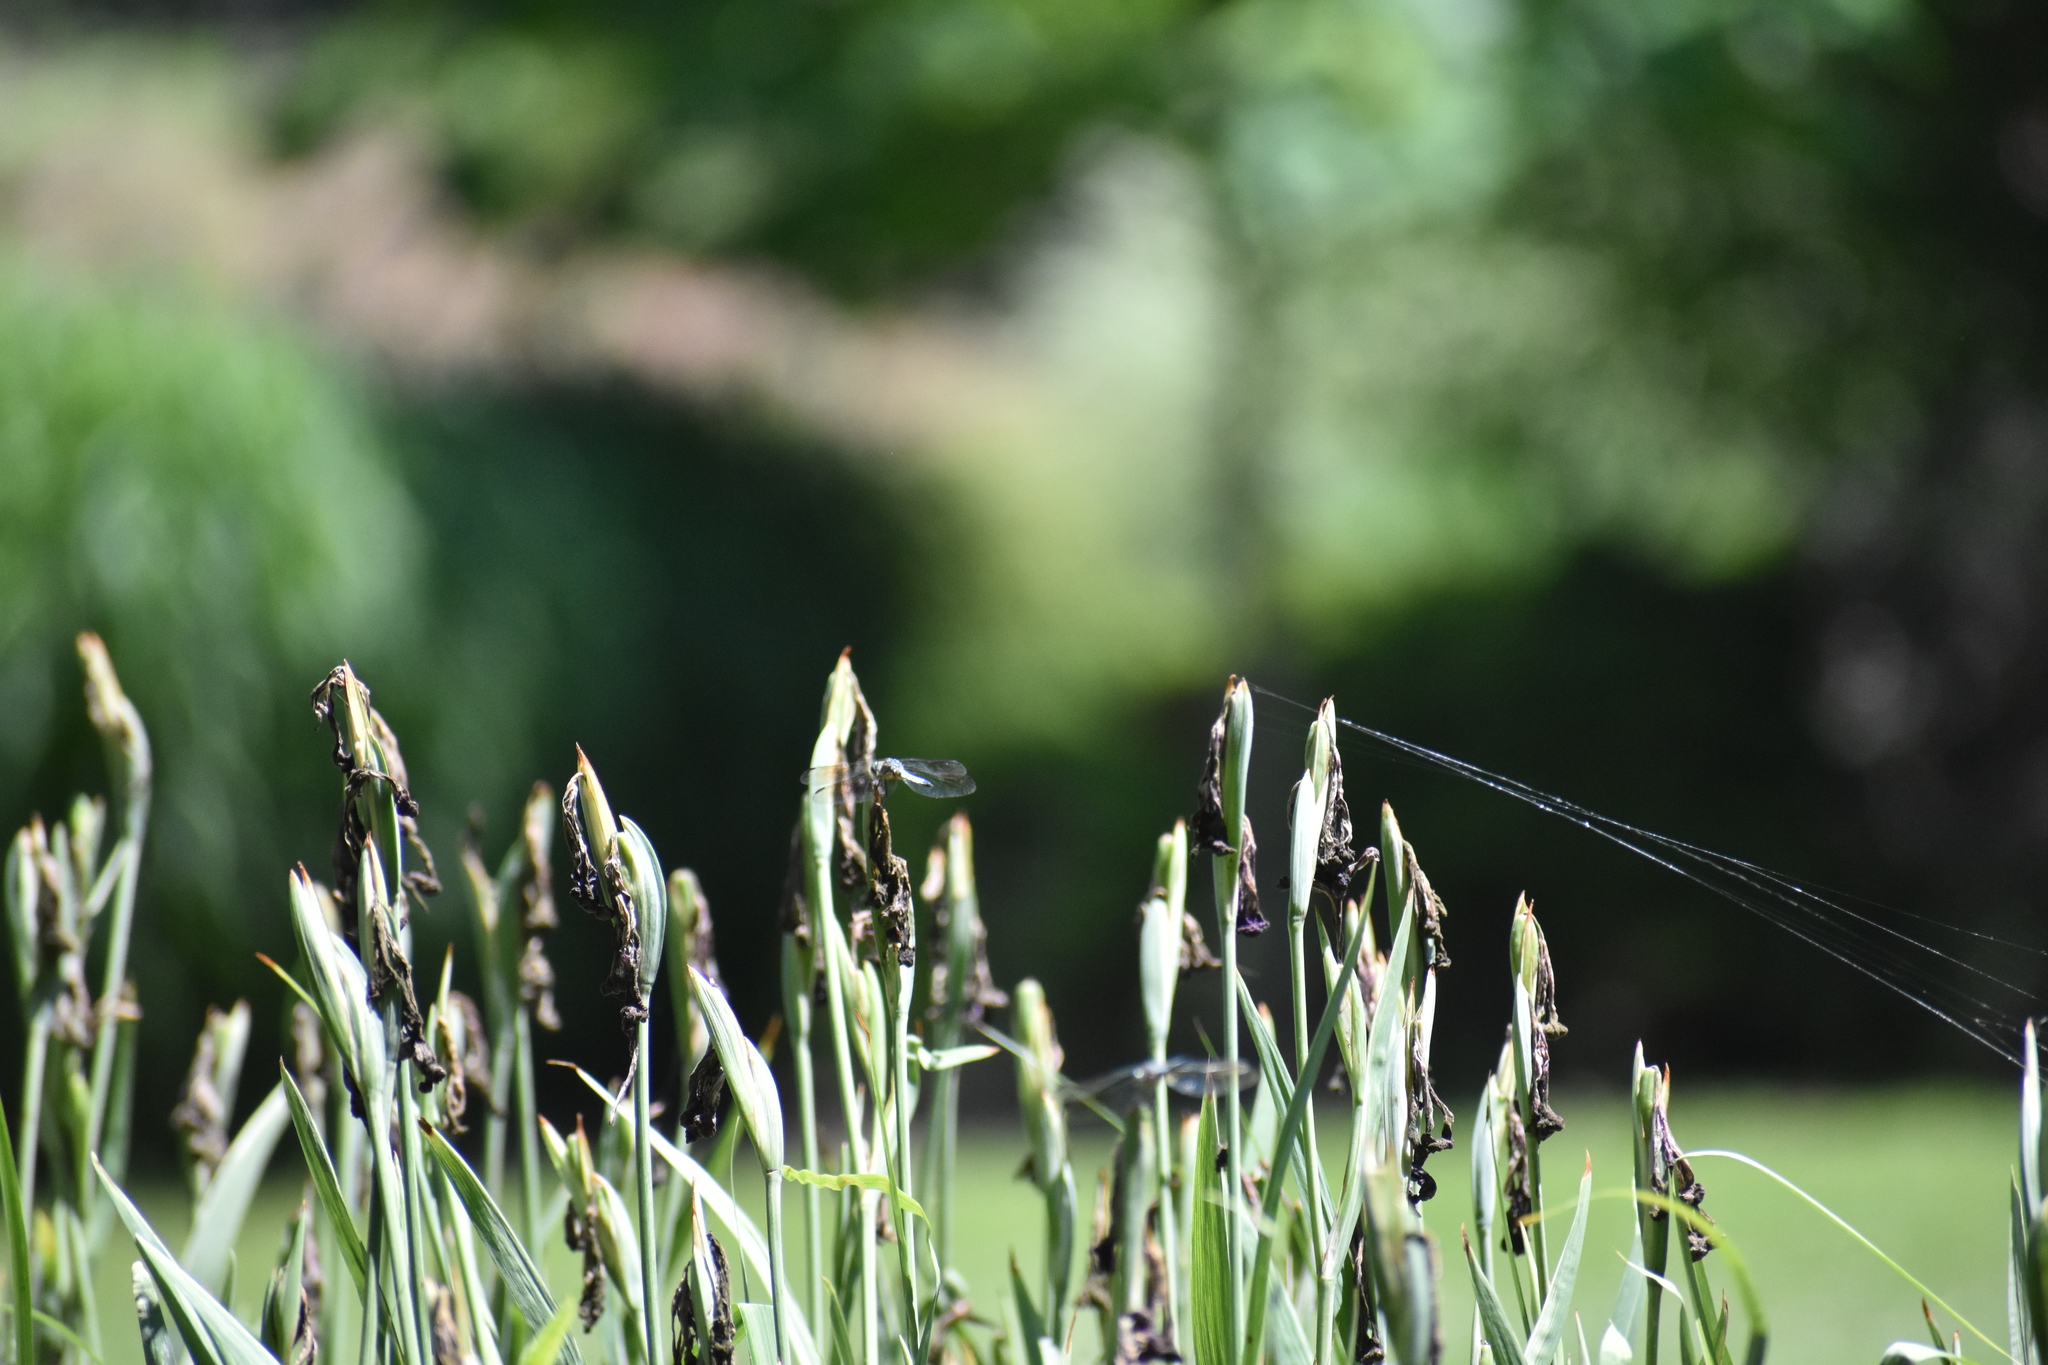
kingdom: Animalia
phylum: Arthropoda
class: Insecta
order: Odonata
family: Libellulidae
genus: Pachydiplax
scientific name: Pachydiplax longipennis
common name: Blue dasher
